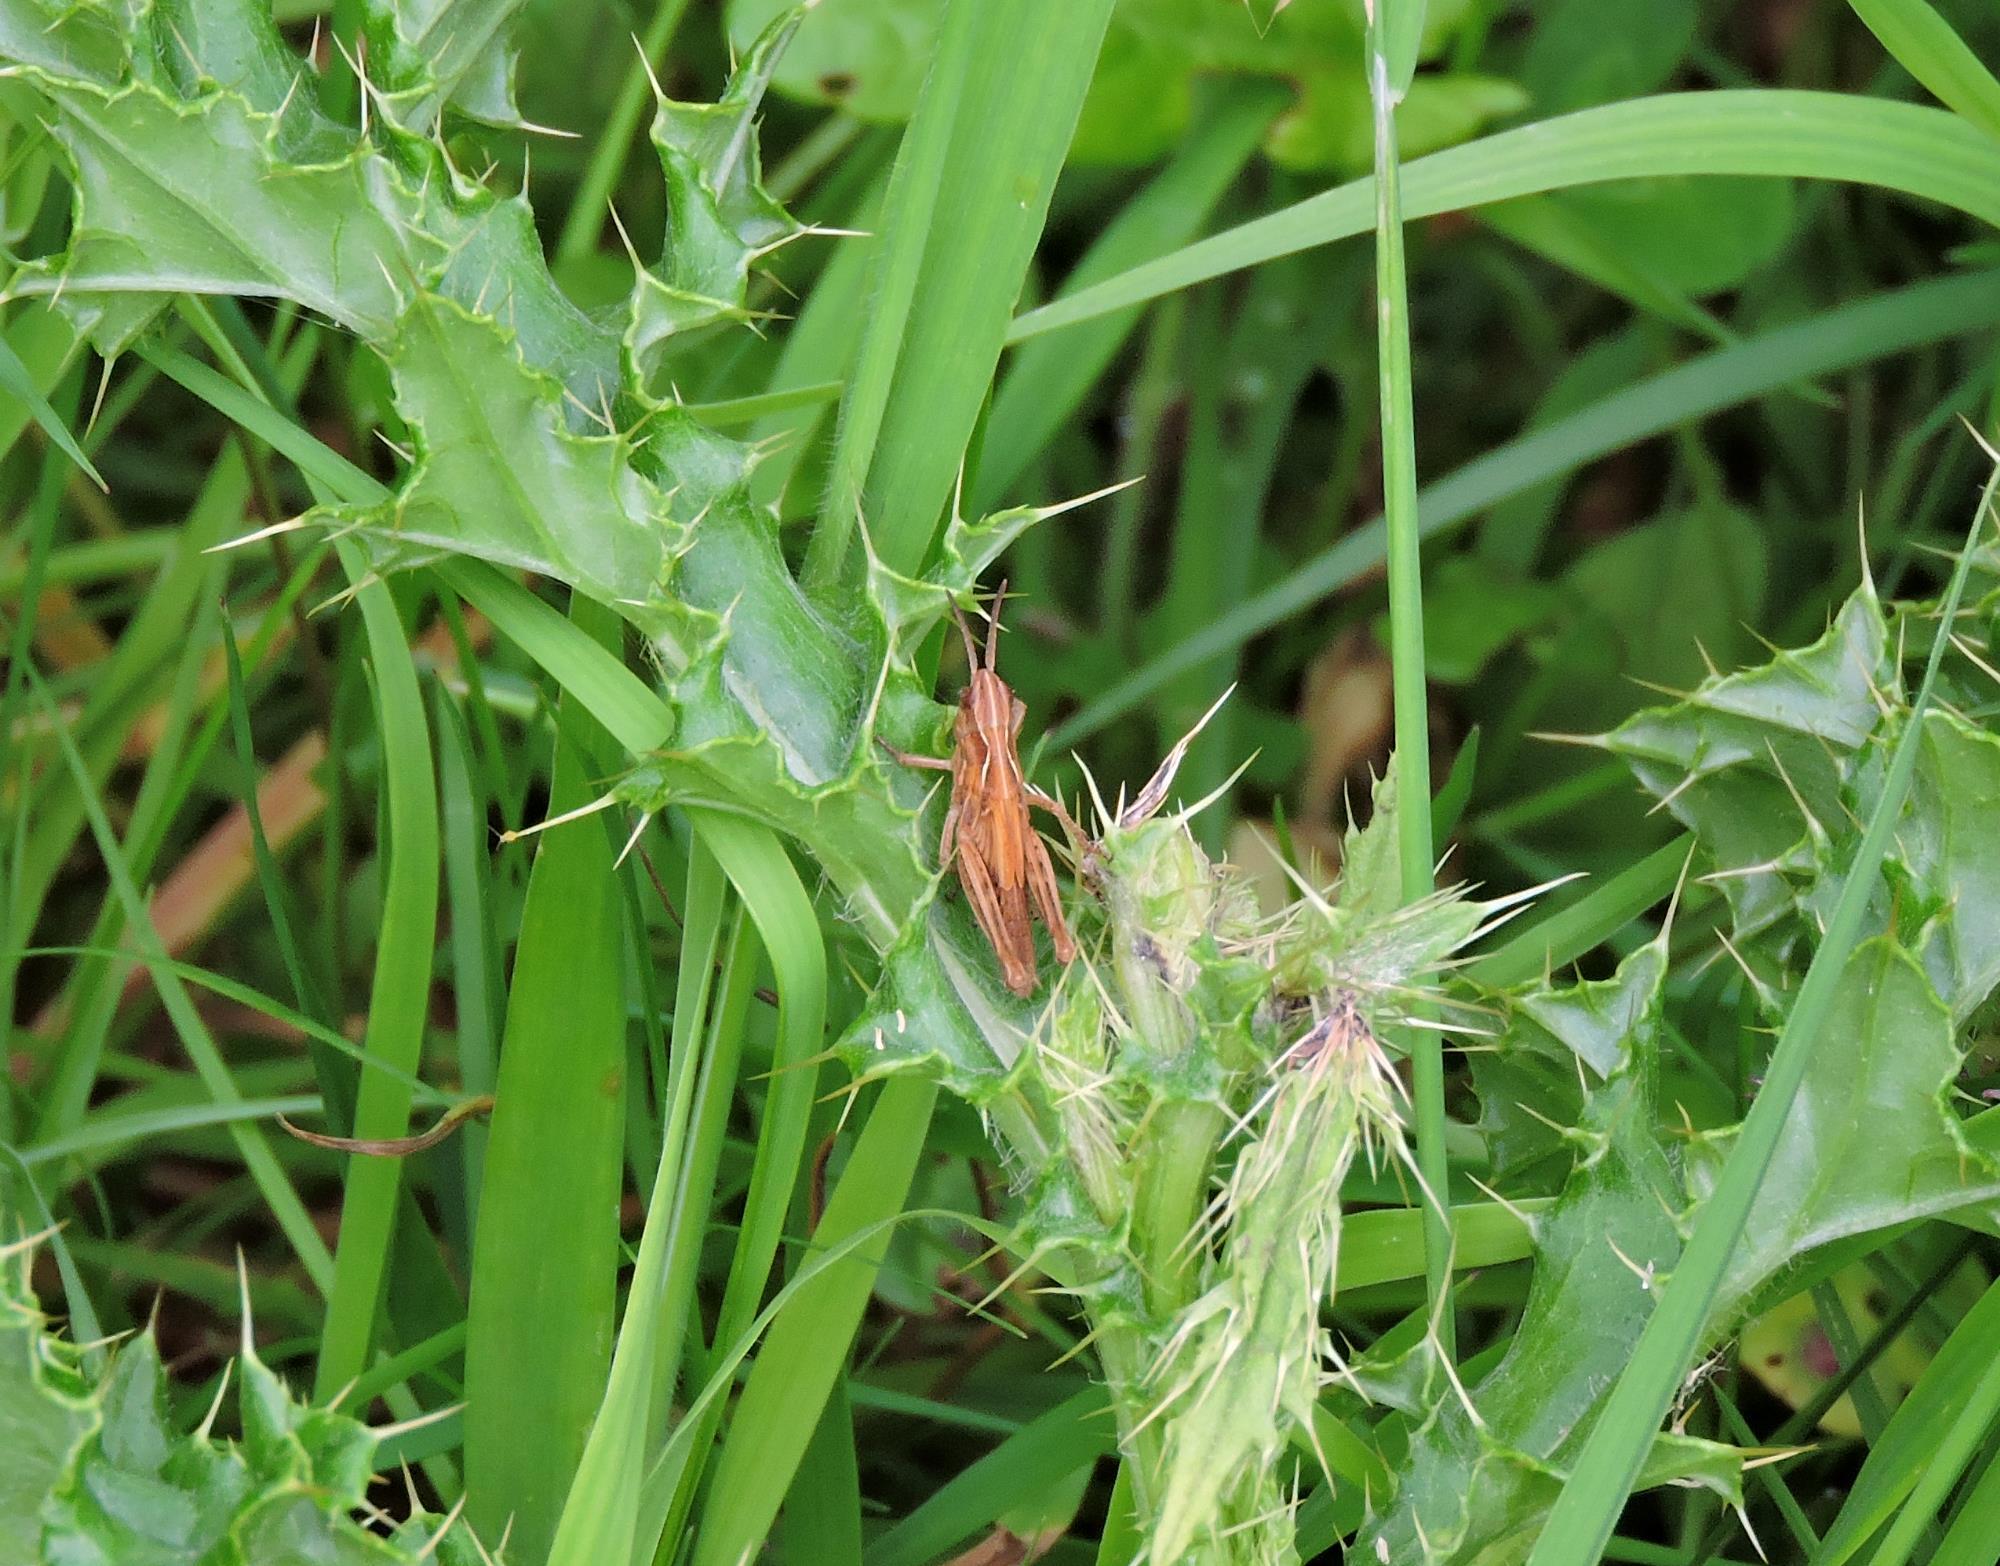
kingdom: Animalia
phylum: Arthropoda
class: Insecta
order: Orthoptera
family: Acrididae
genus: Chorthippus
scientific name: Chorthippus brunneus
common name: Field grasshopper
